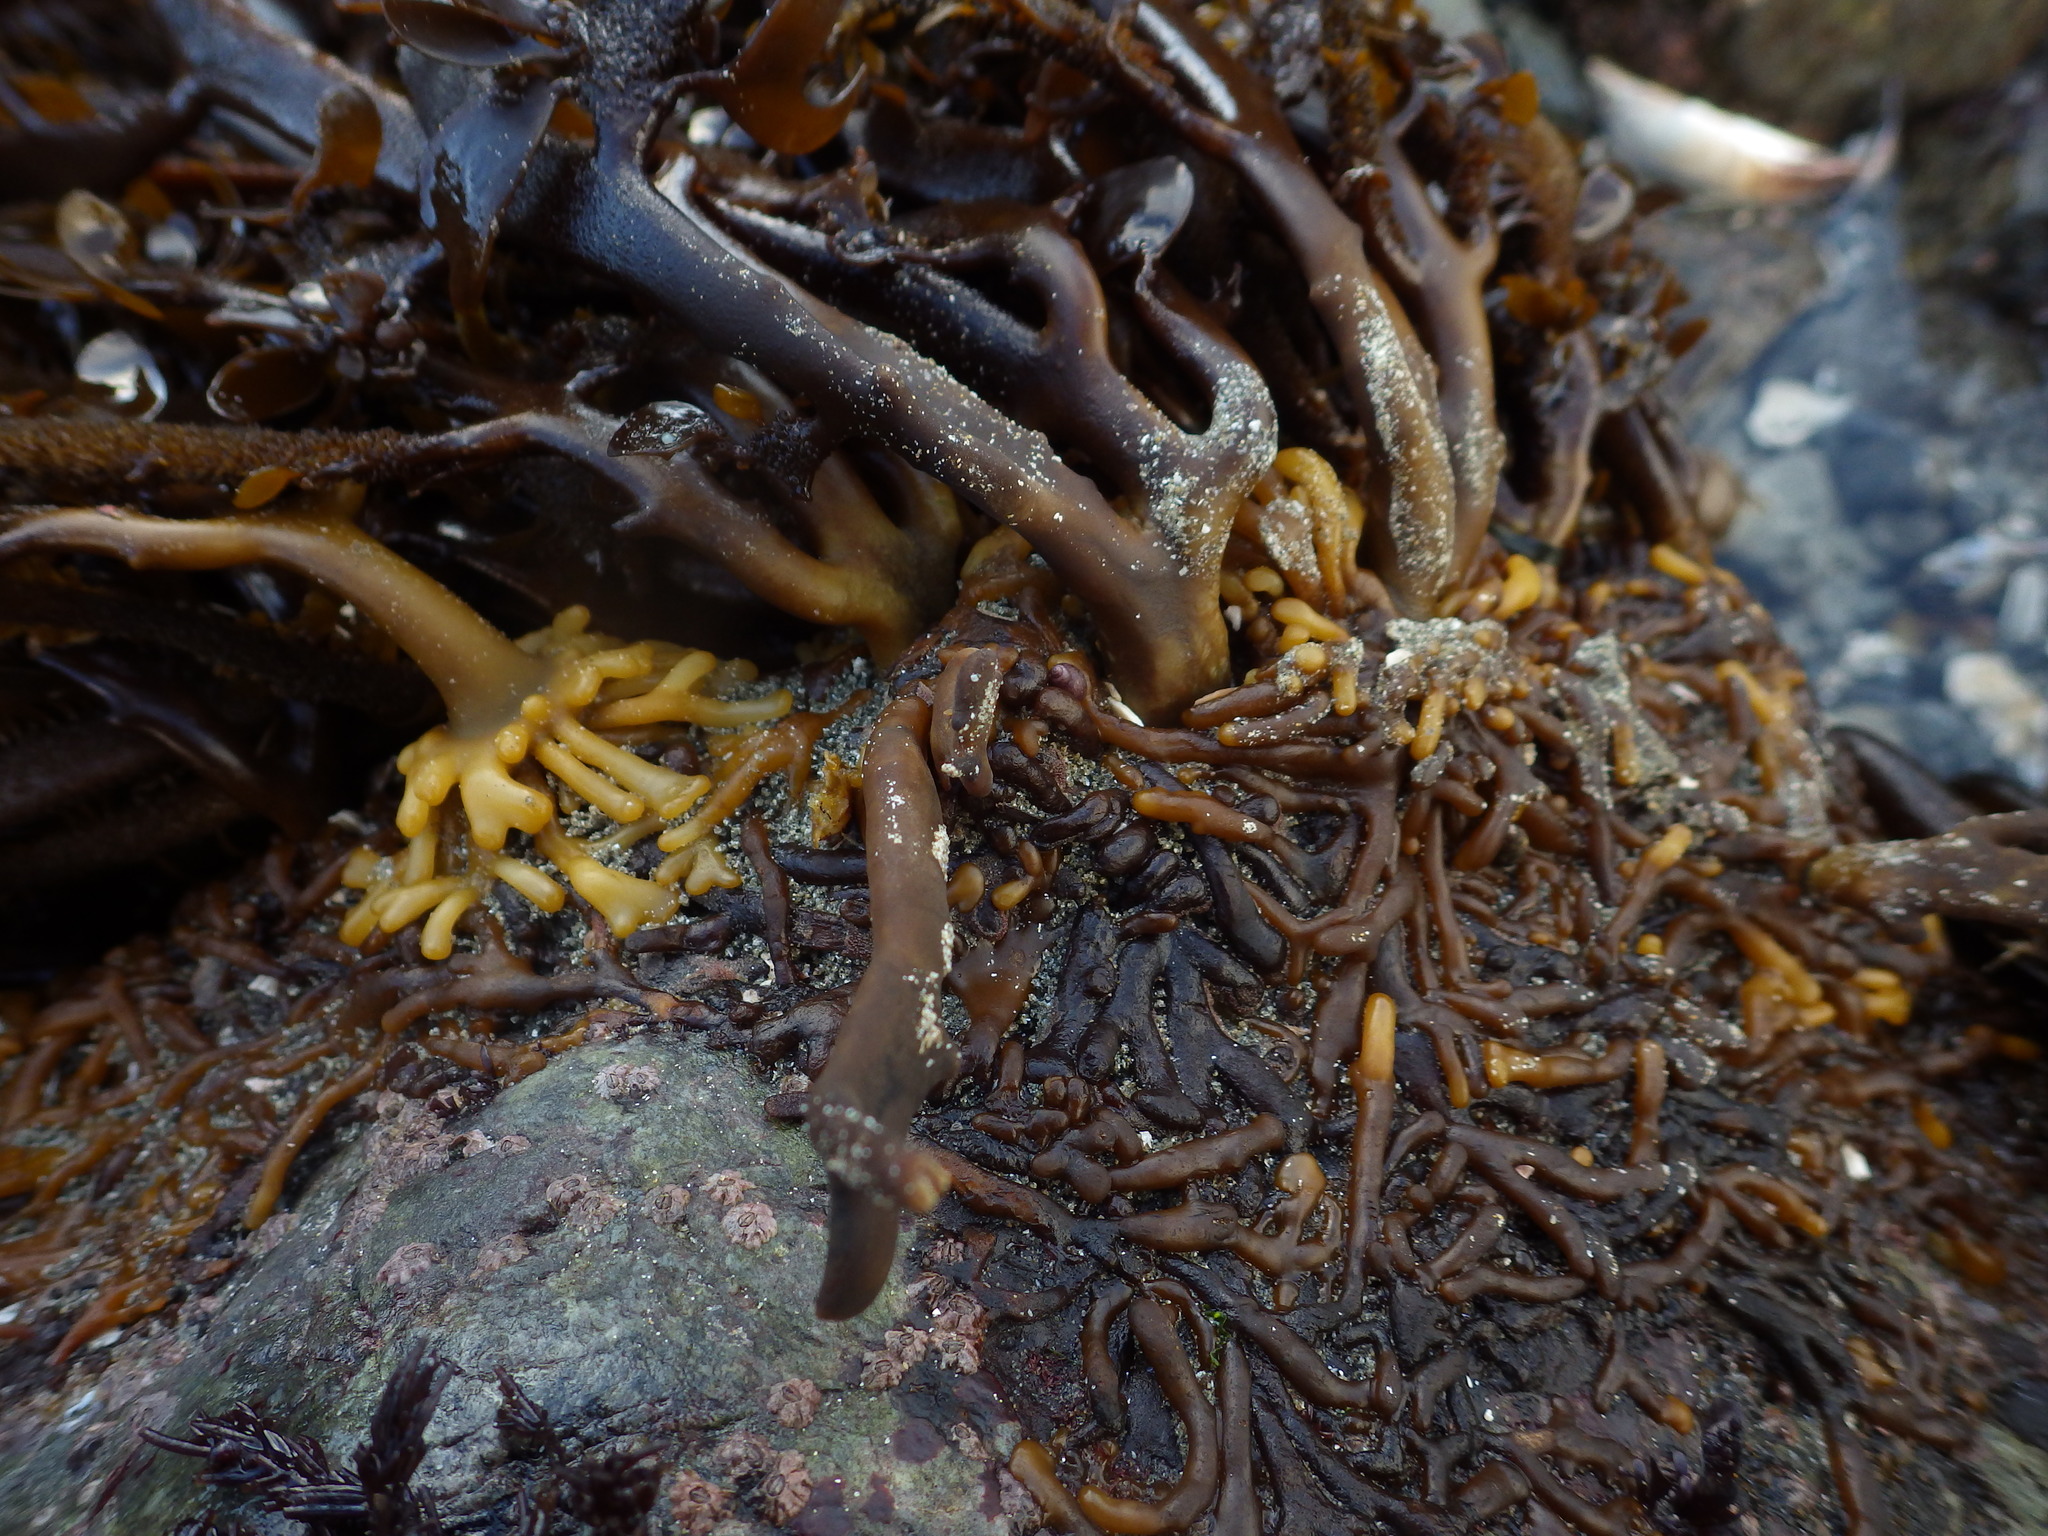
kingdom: Chromista
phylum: Ochrophyta
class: Phaeophyceae
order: Laminariales
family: Lessoniaceae
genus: Egregia
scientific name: Egregia menziesii
